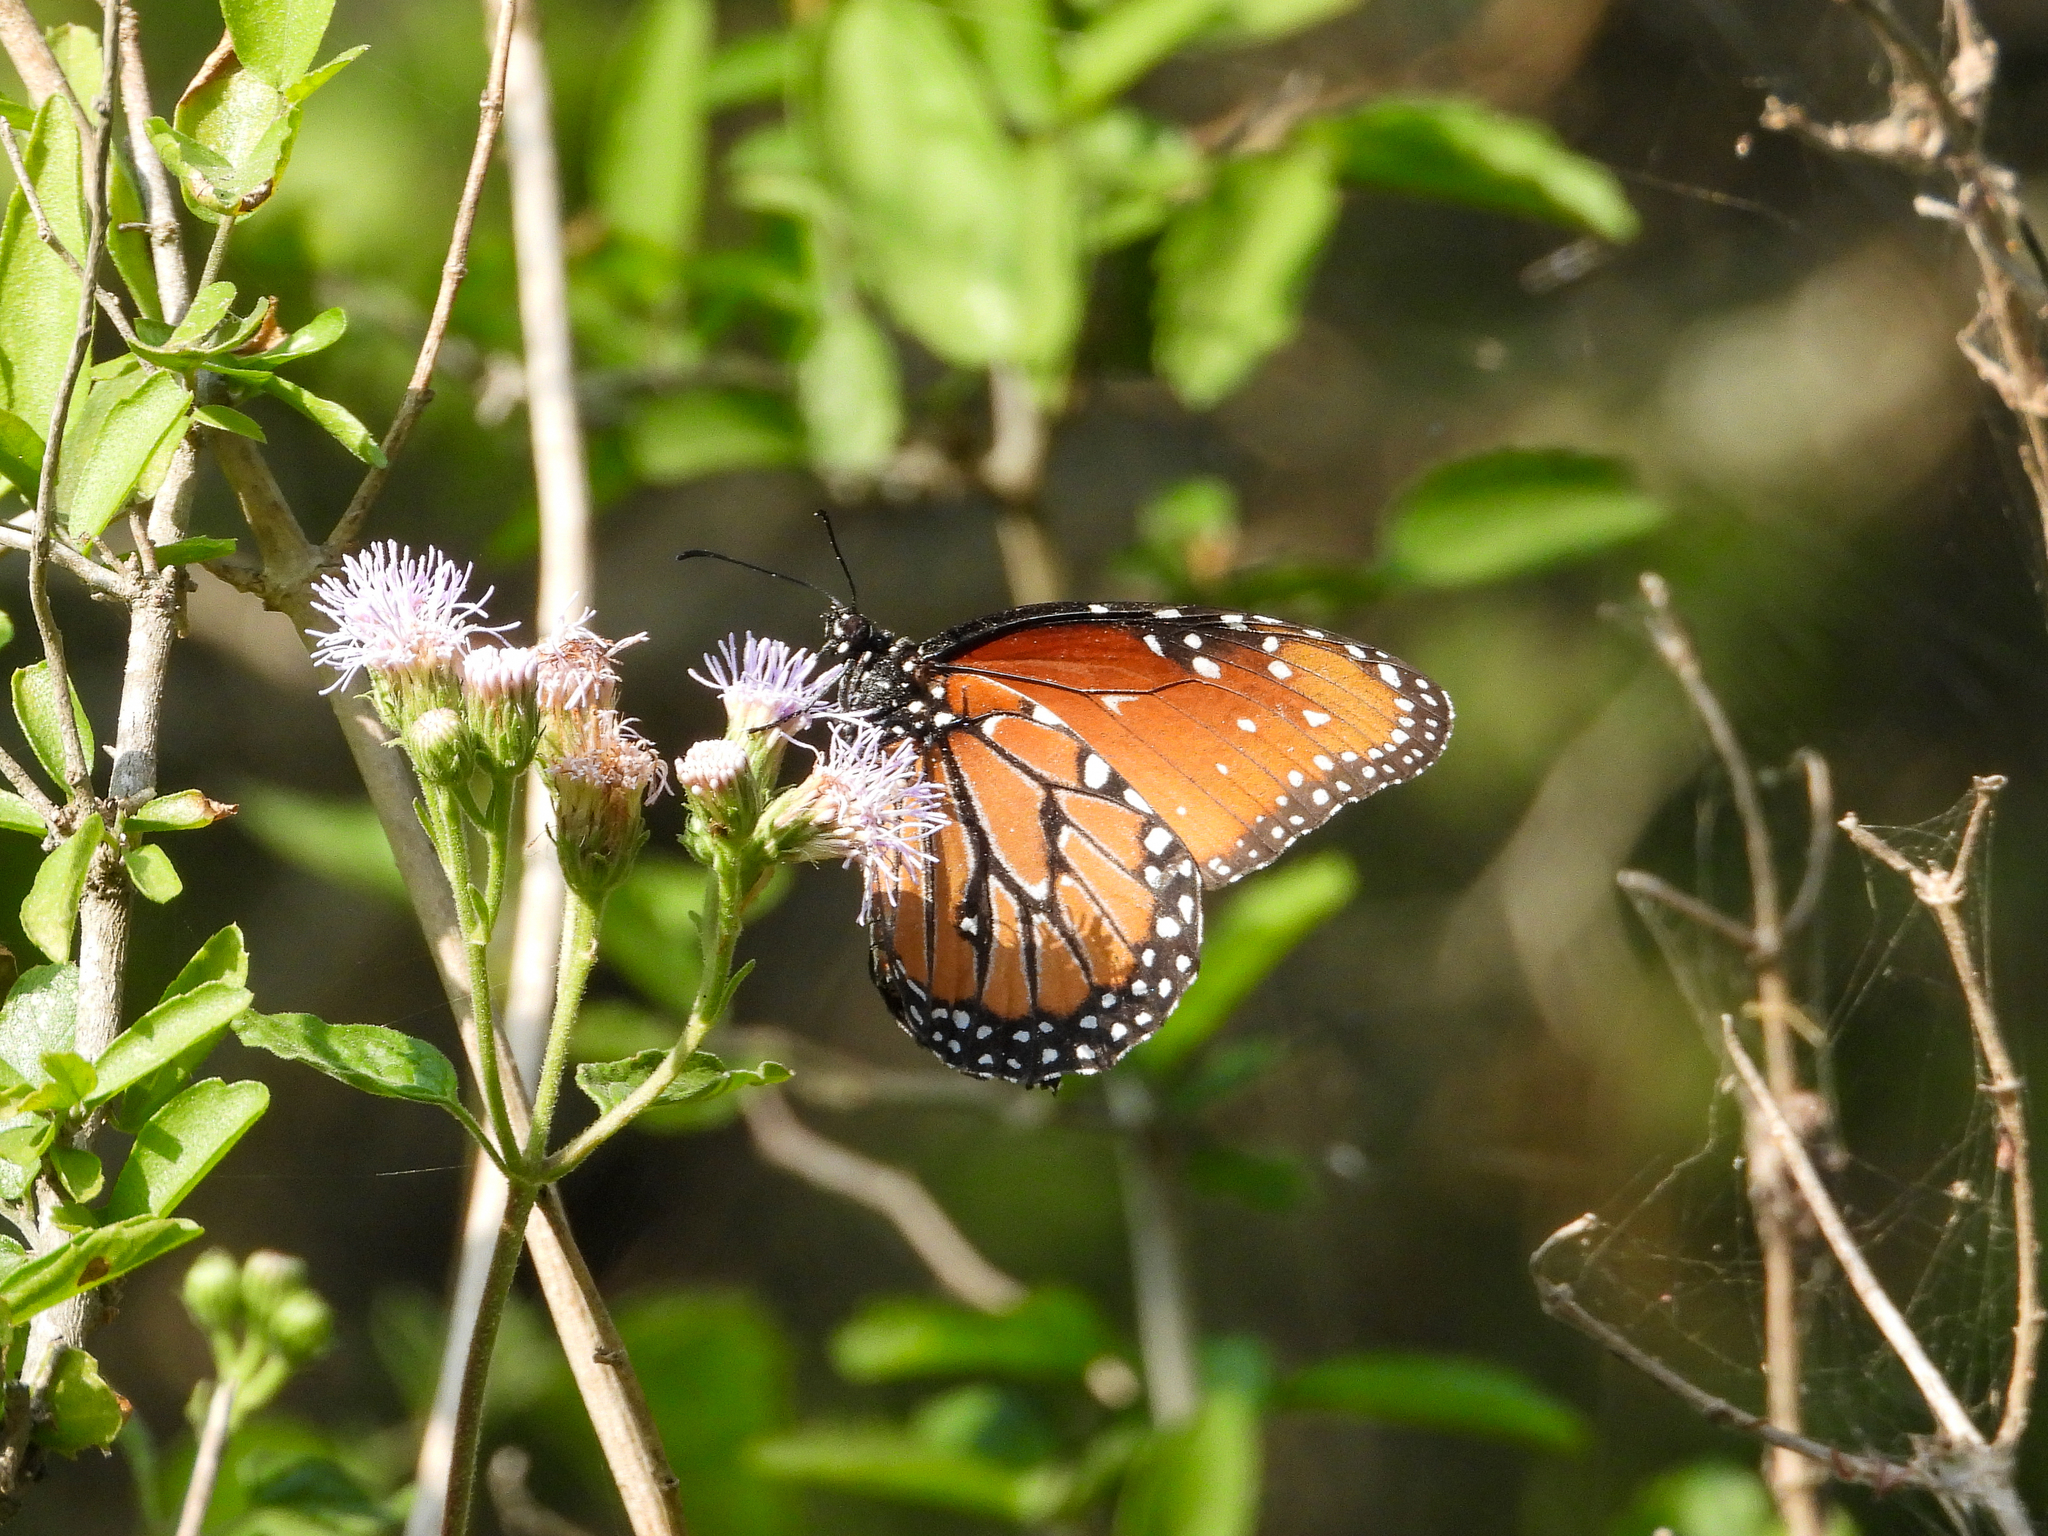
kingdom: Animalia
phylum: Arthropoda
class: Insecta
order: Lepidoptera
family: Nymphalidae
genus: Danaus
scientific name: Danaus gilippus
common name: Queen
